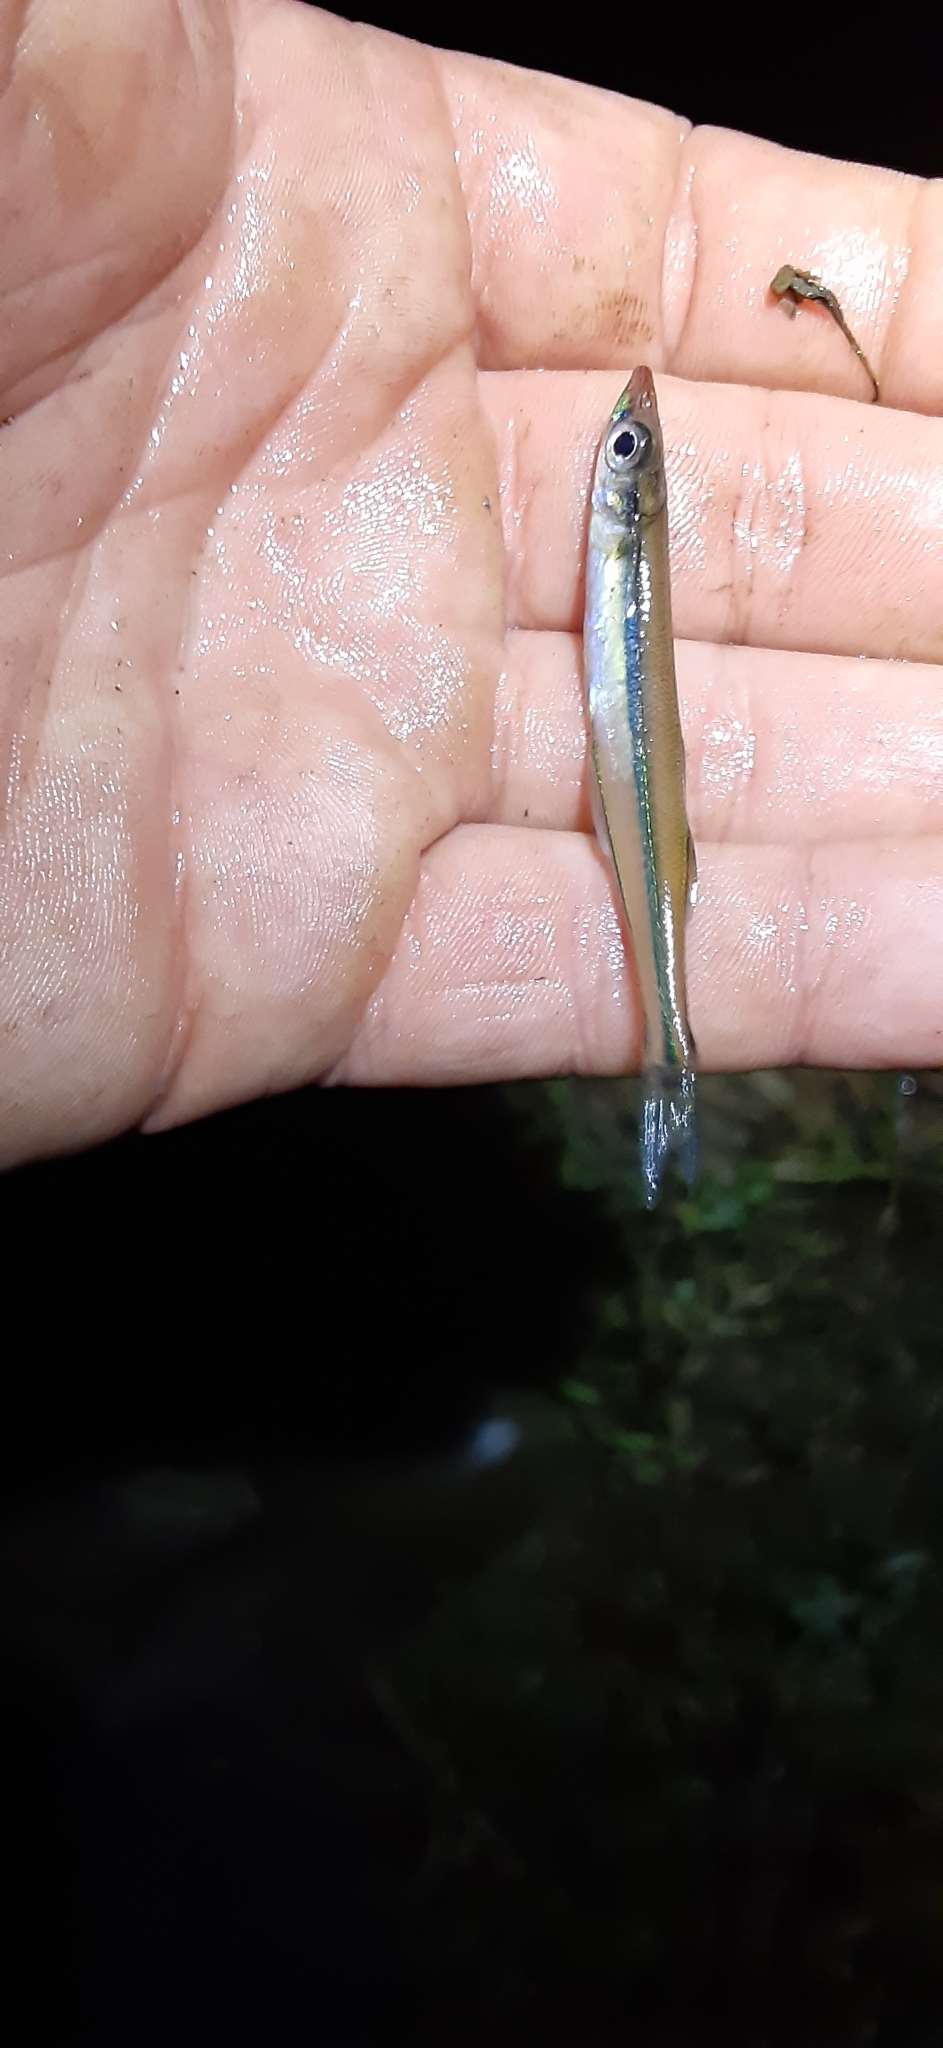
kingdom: Animalia
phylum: Chordata
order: Atheriniformes
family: Atherinopsidae
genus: Labidesthes
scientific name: Labidesthes sicculus
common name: Brook silverside
